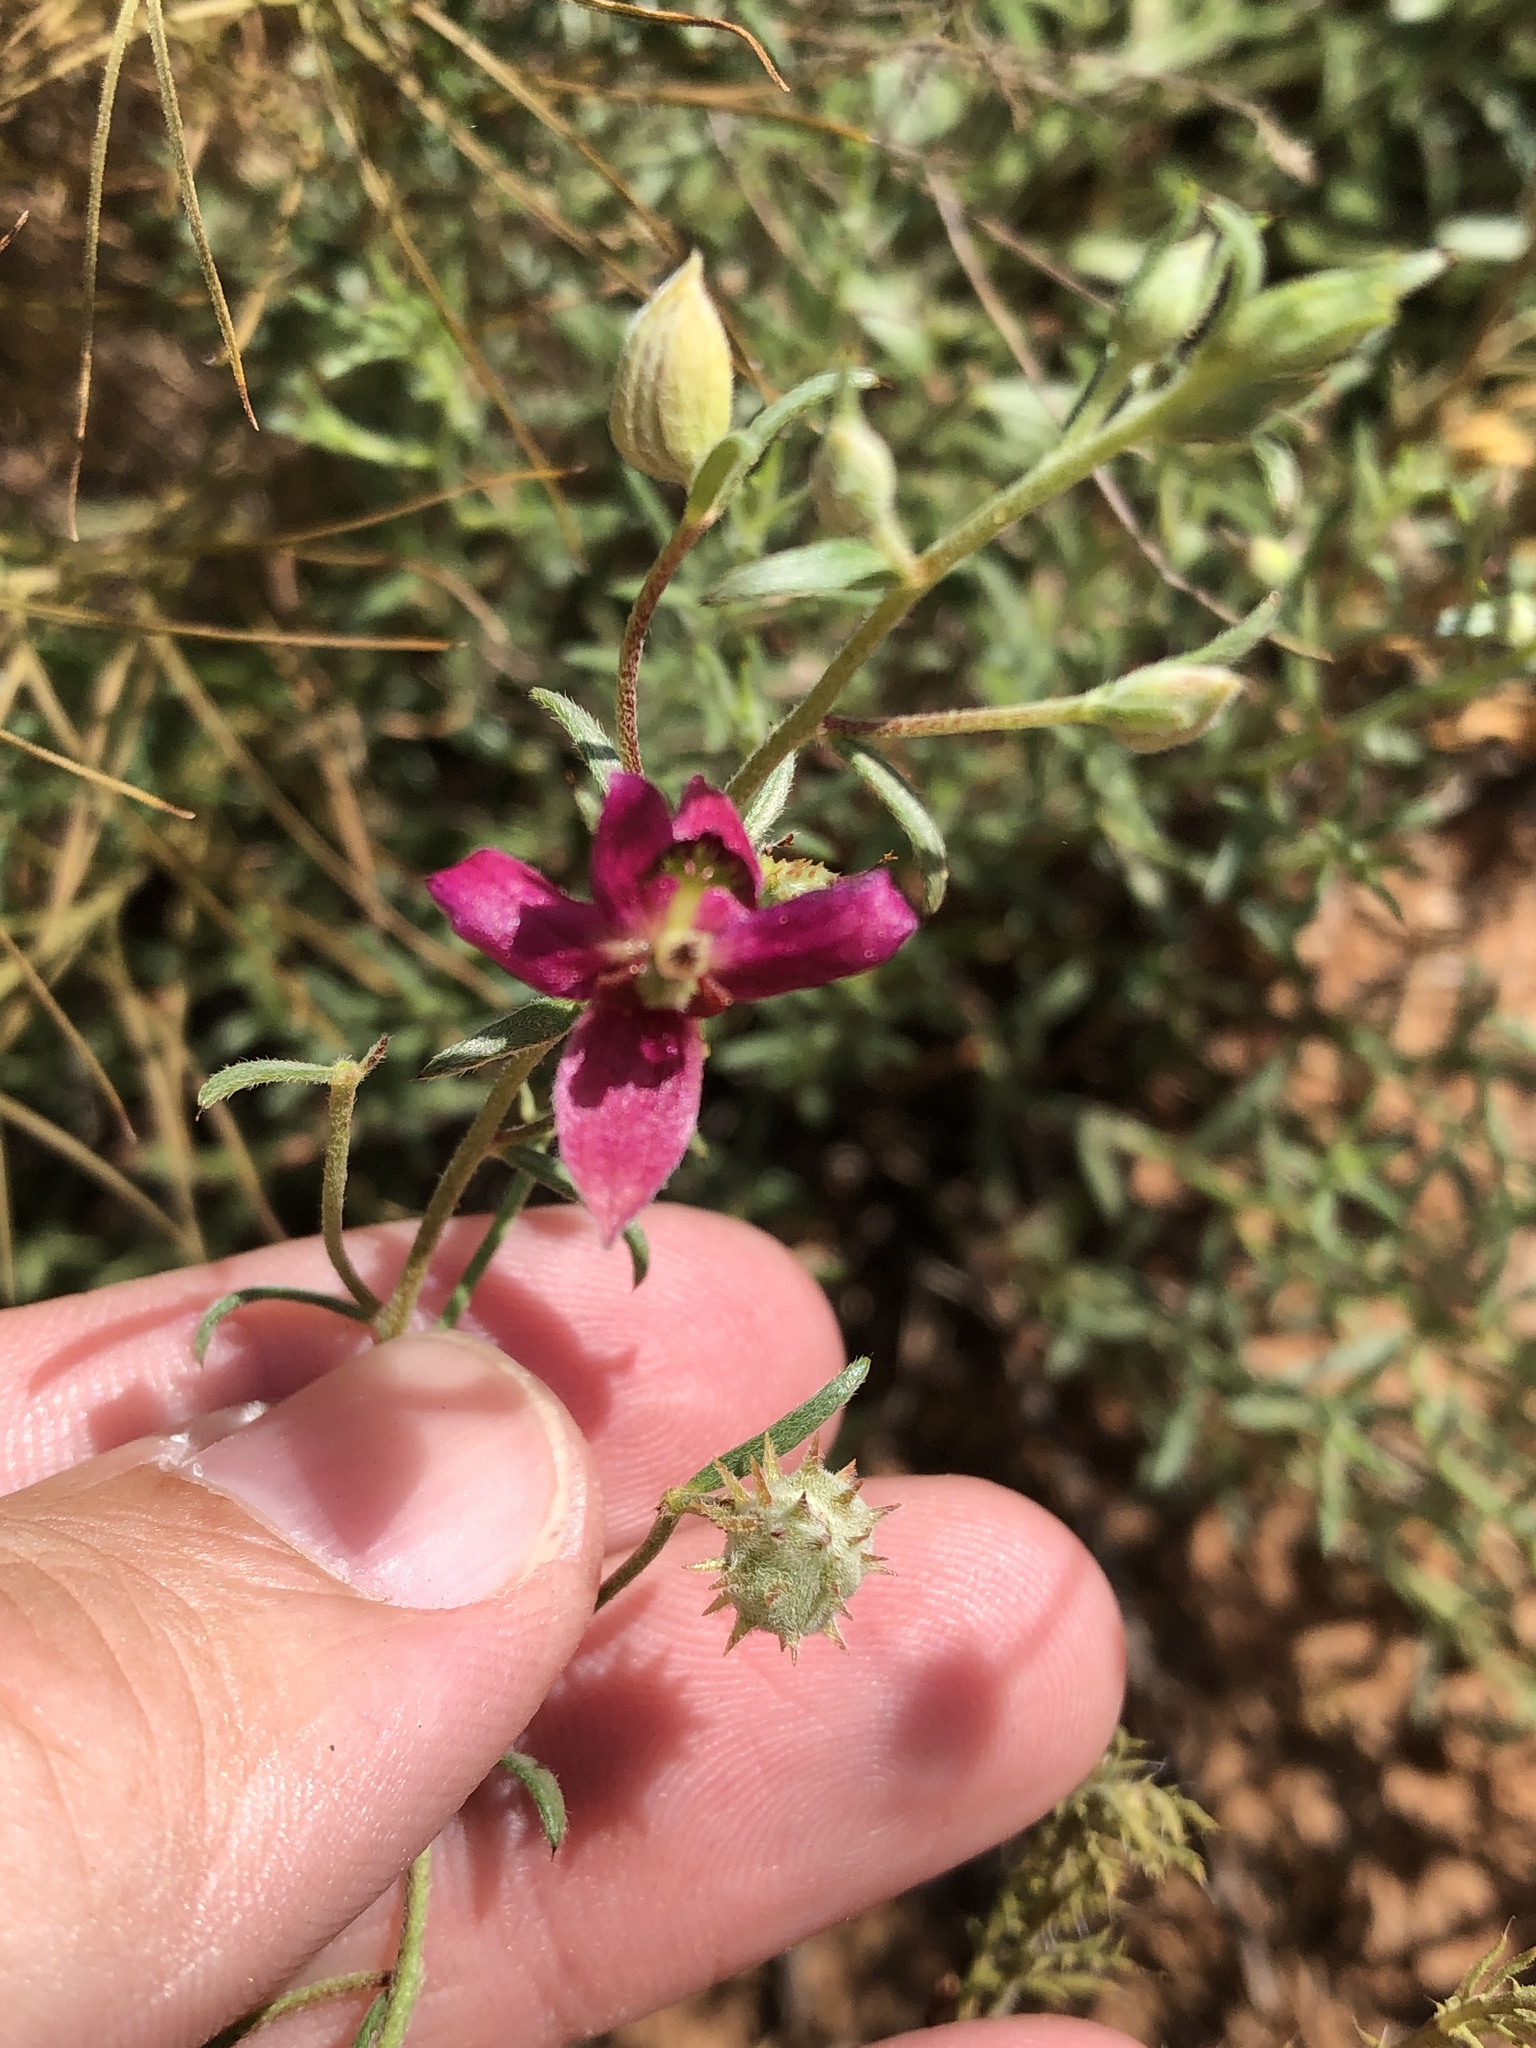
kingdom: Plantae
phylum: Tracheophyta
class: Magnoliopsida
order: Zygophyllales
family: Krameriaceae
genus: Krameria
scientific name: Krameria lanceolata
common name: Ratany
